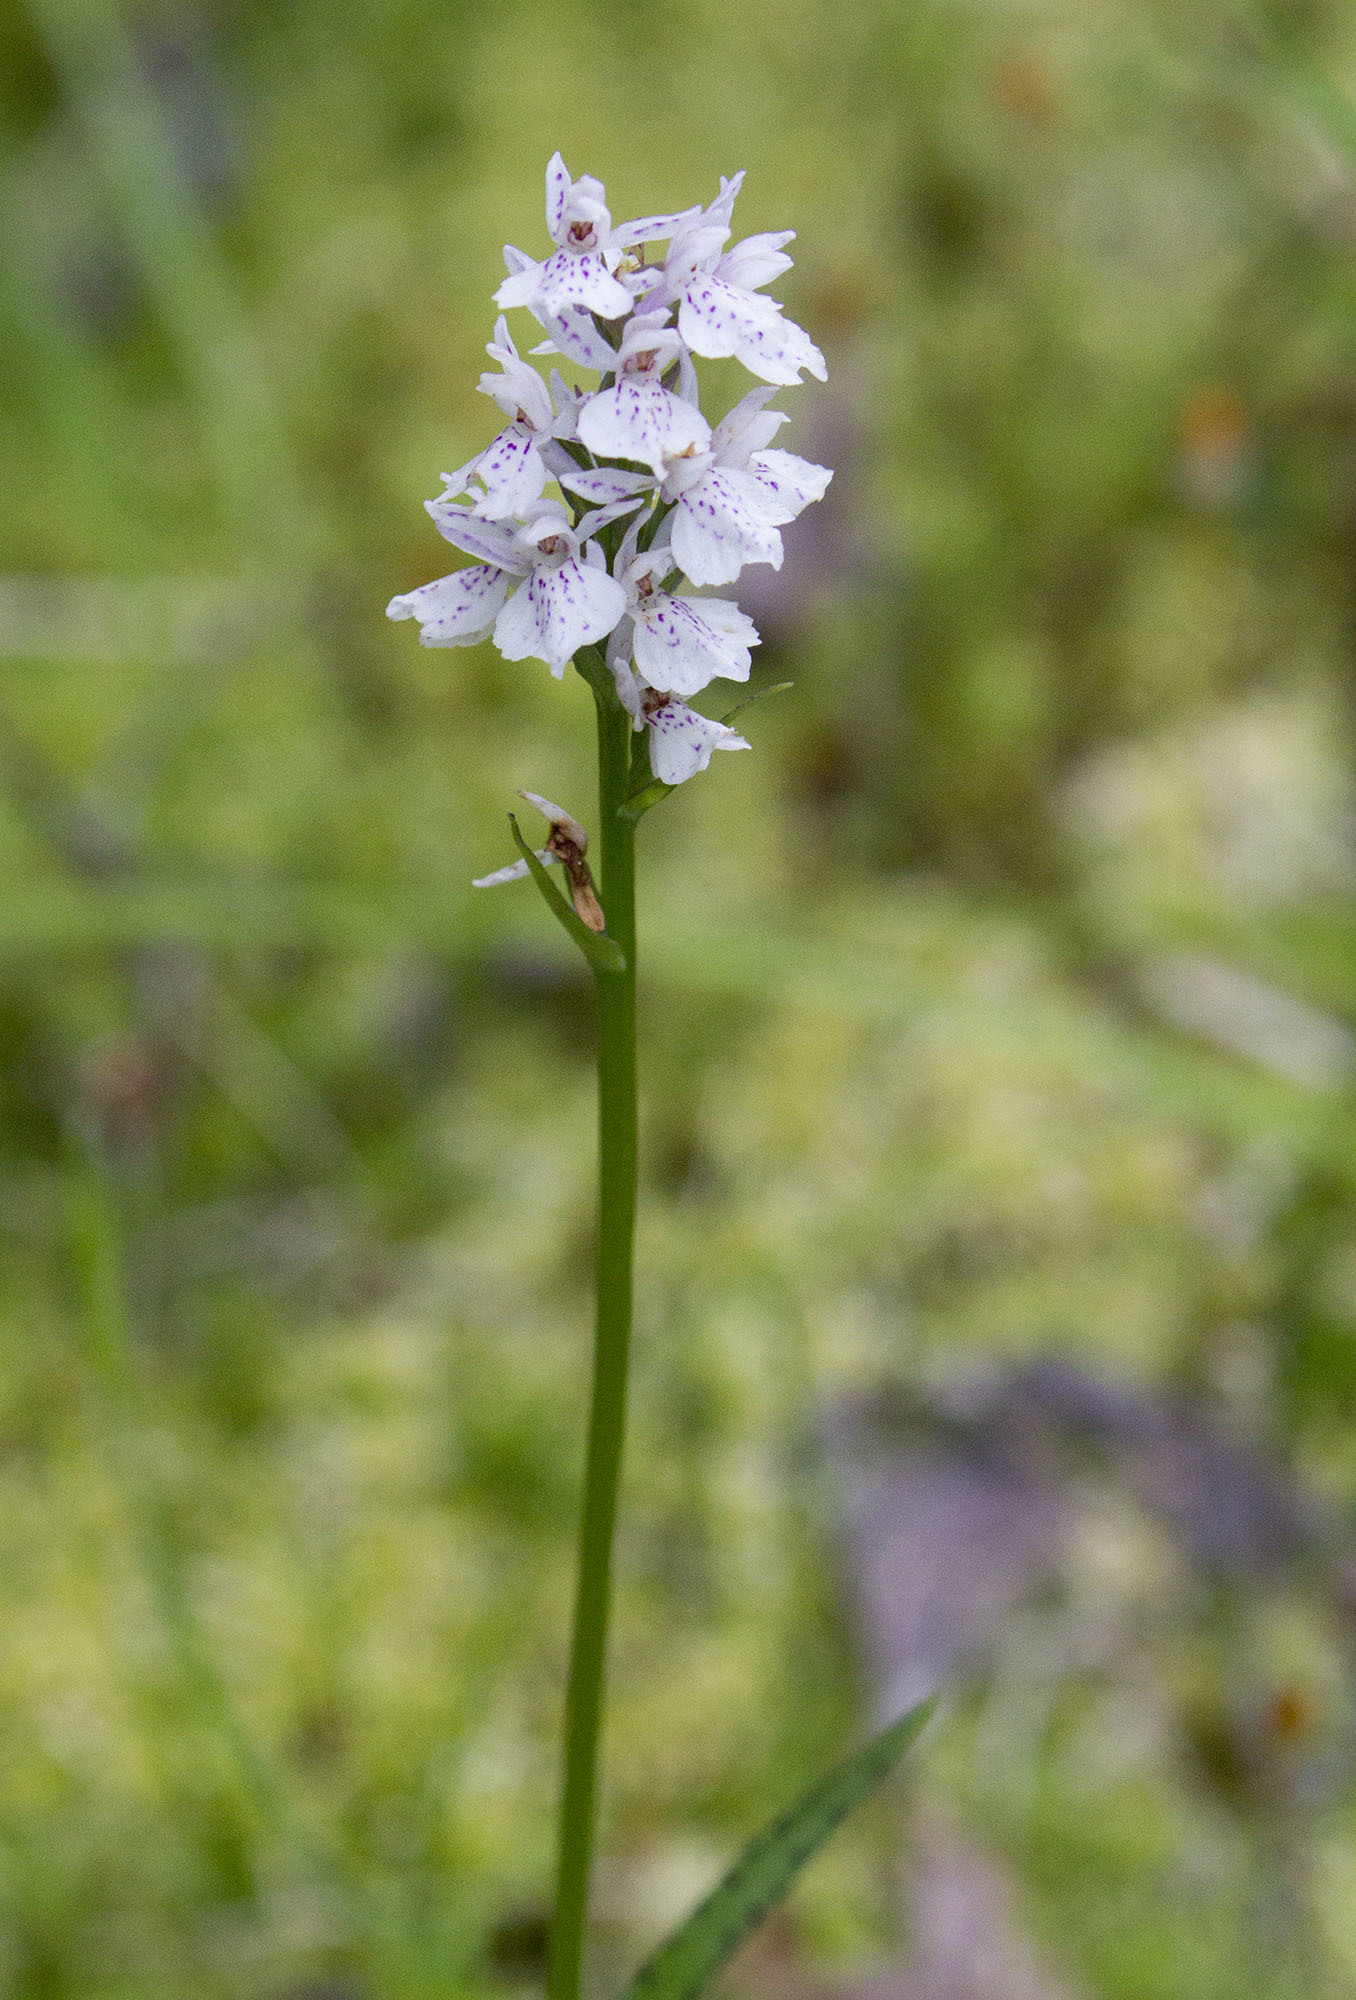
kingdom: Plantae
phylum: Tracheophyta
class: Liliopsida
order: Asparagales
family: Orchidaceae
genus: Dactylorhiza
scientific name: Dactylorhiza maculata
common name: Heath spotted-orchid
